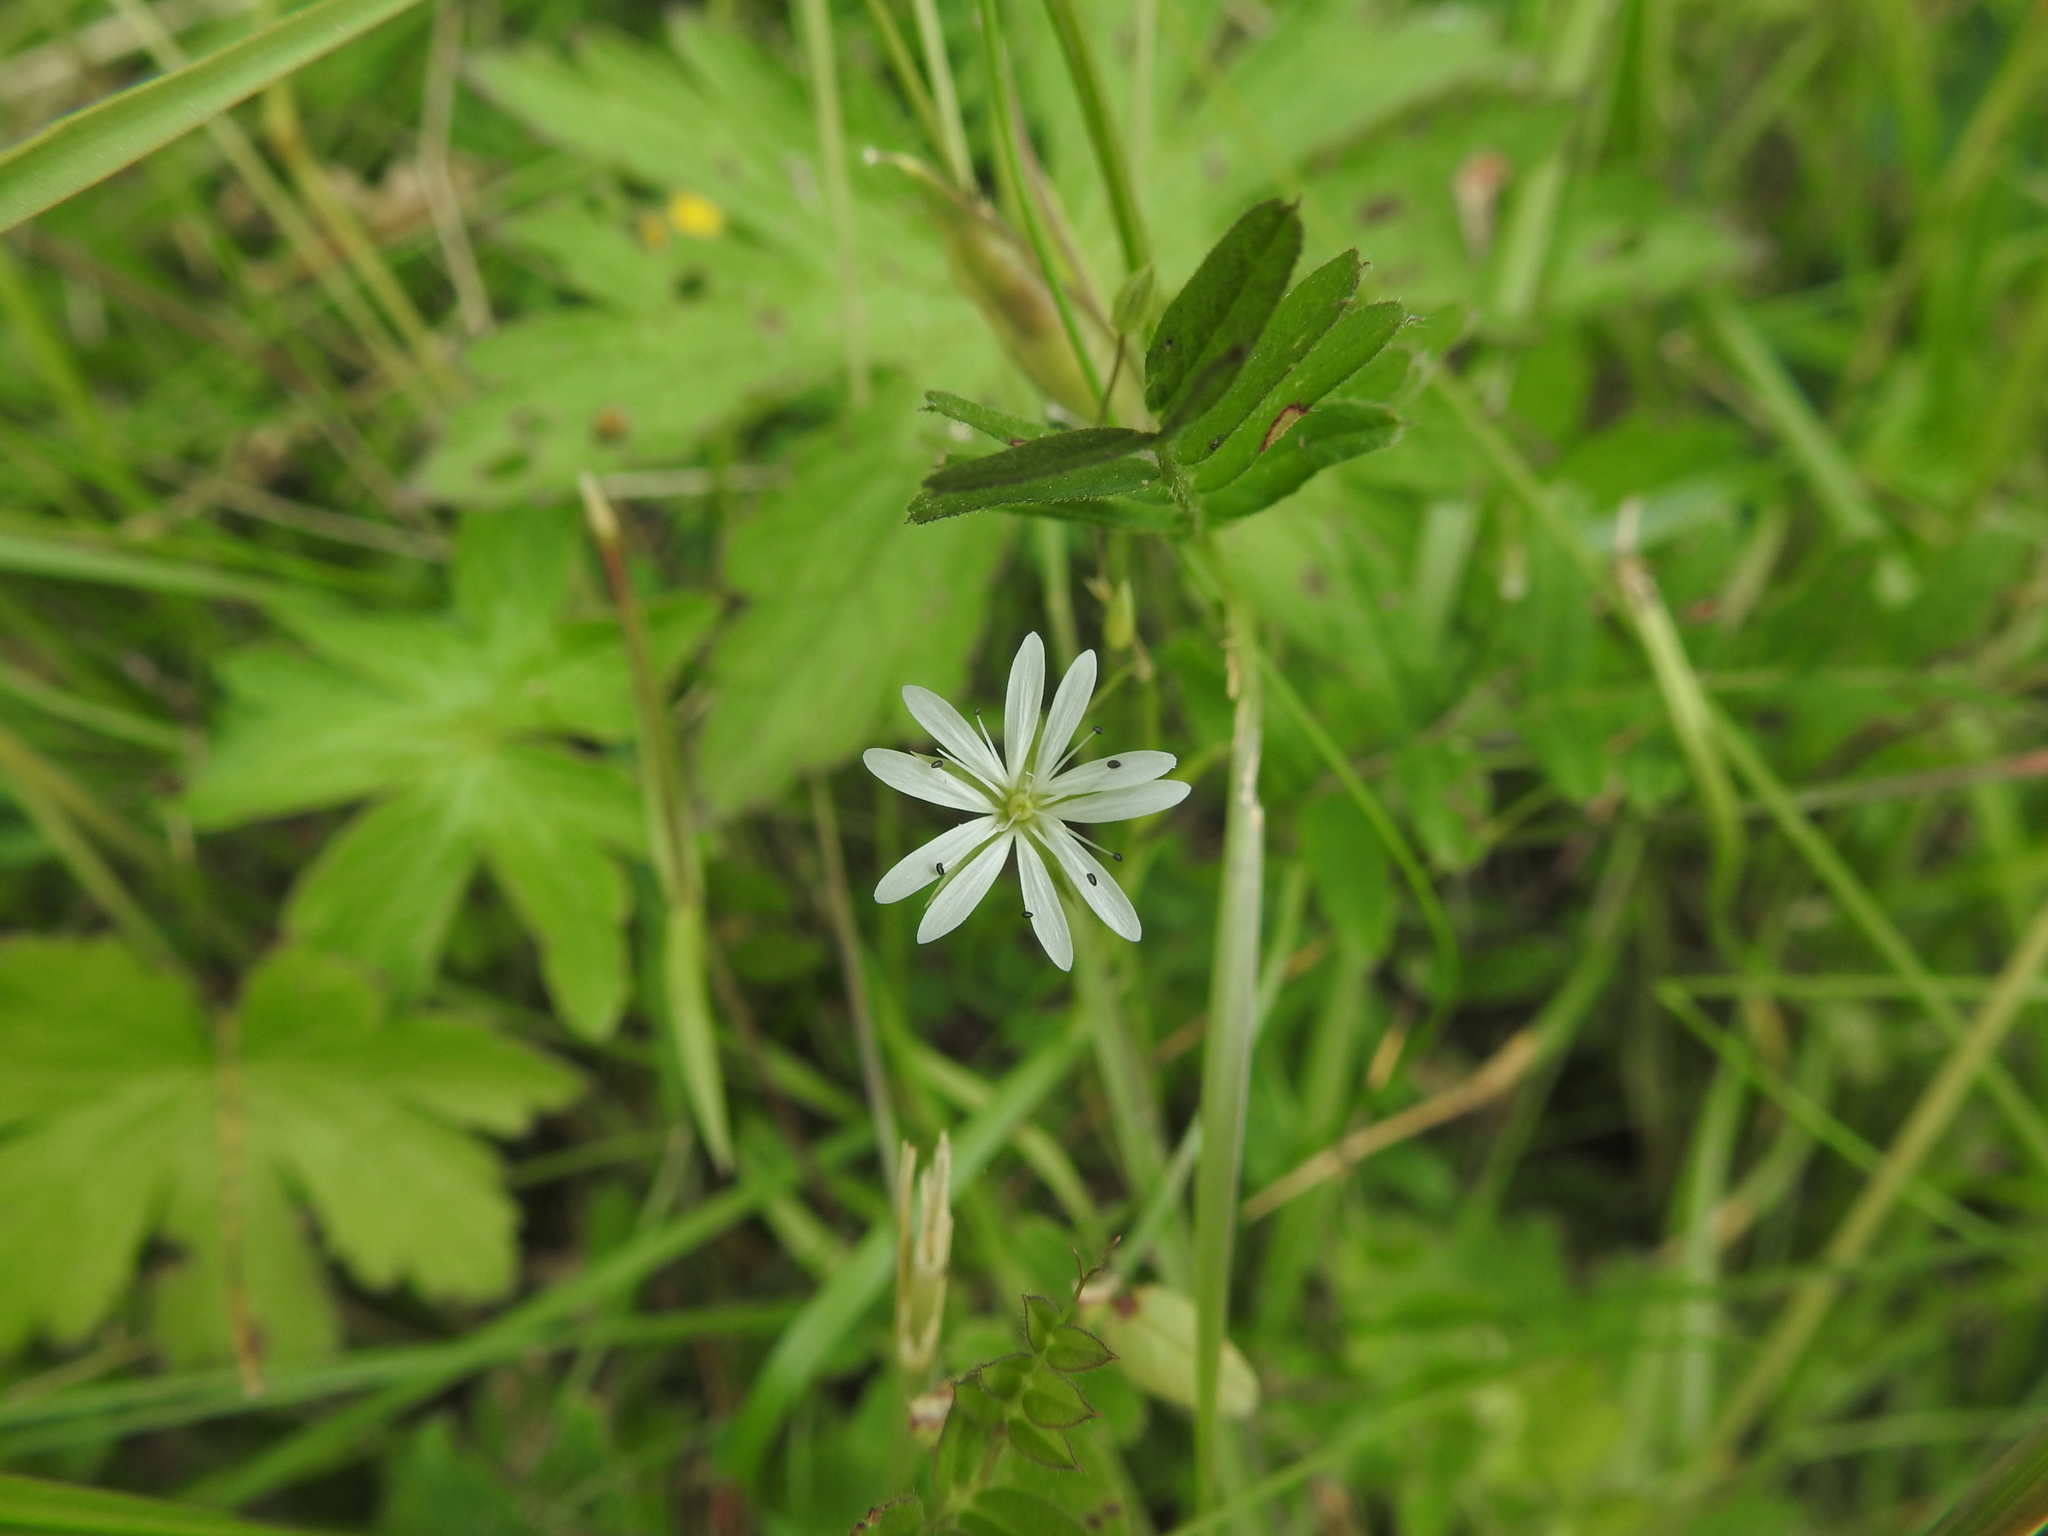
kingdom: Plantae
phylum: Tracheophyta
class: Magnoliopsida
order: Caryophyllales
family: Caryophyllaceae
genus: Stellaria
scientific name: Stellaria graminea
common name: Grass-like starwort
